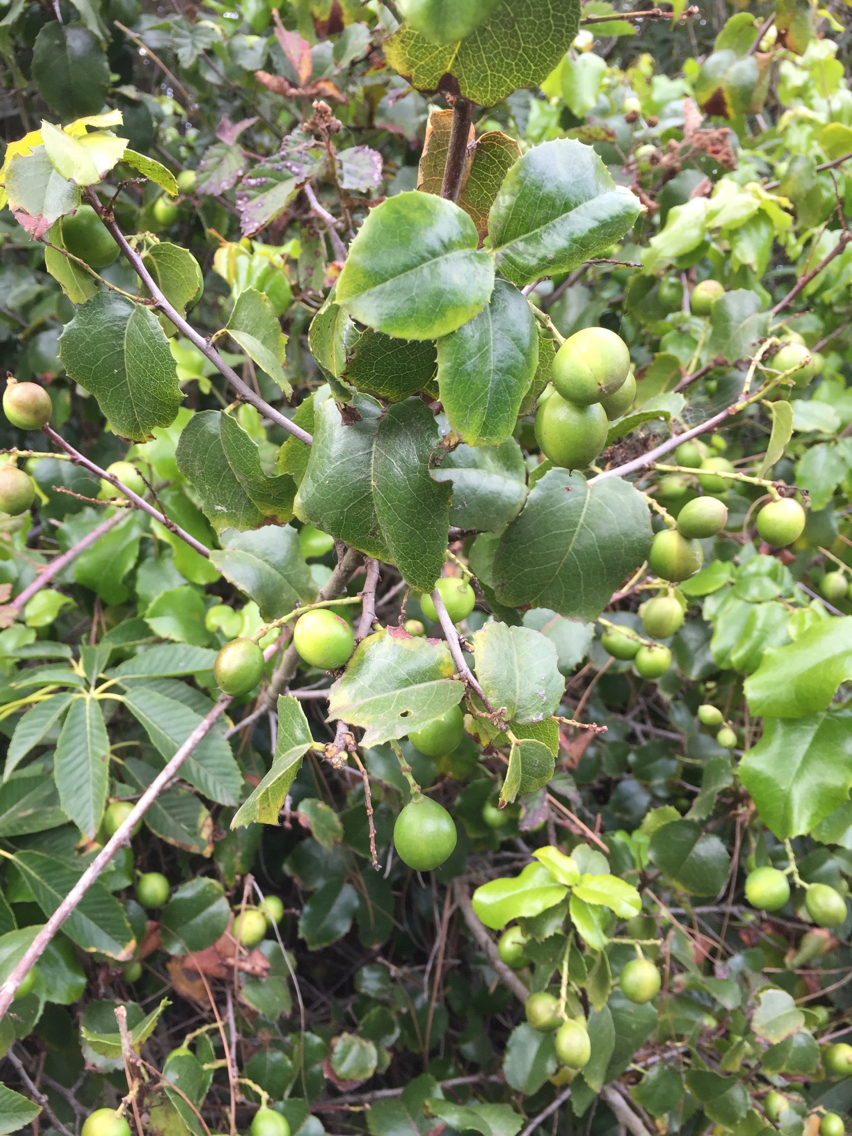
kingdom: Plantae
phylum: Tracheophyta
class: Magnoliopsida
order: Rosales
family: Rosaceae
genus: Prunus
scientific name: Prunus ilicifolia
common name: Hollyleaf cherry
